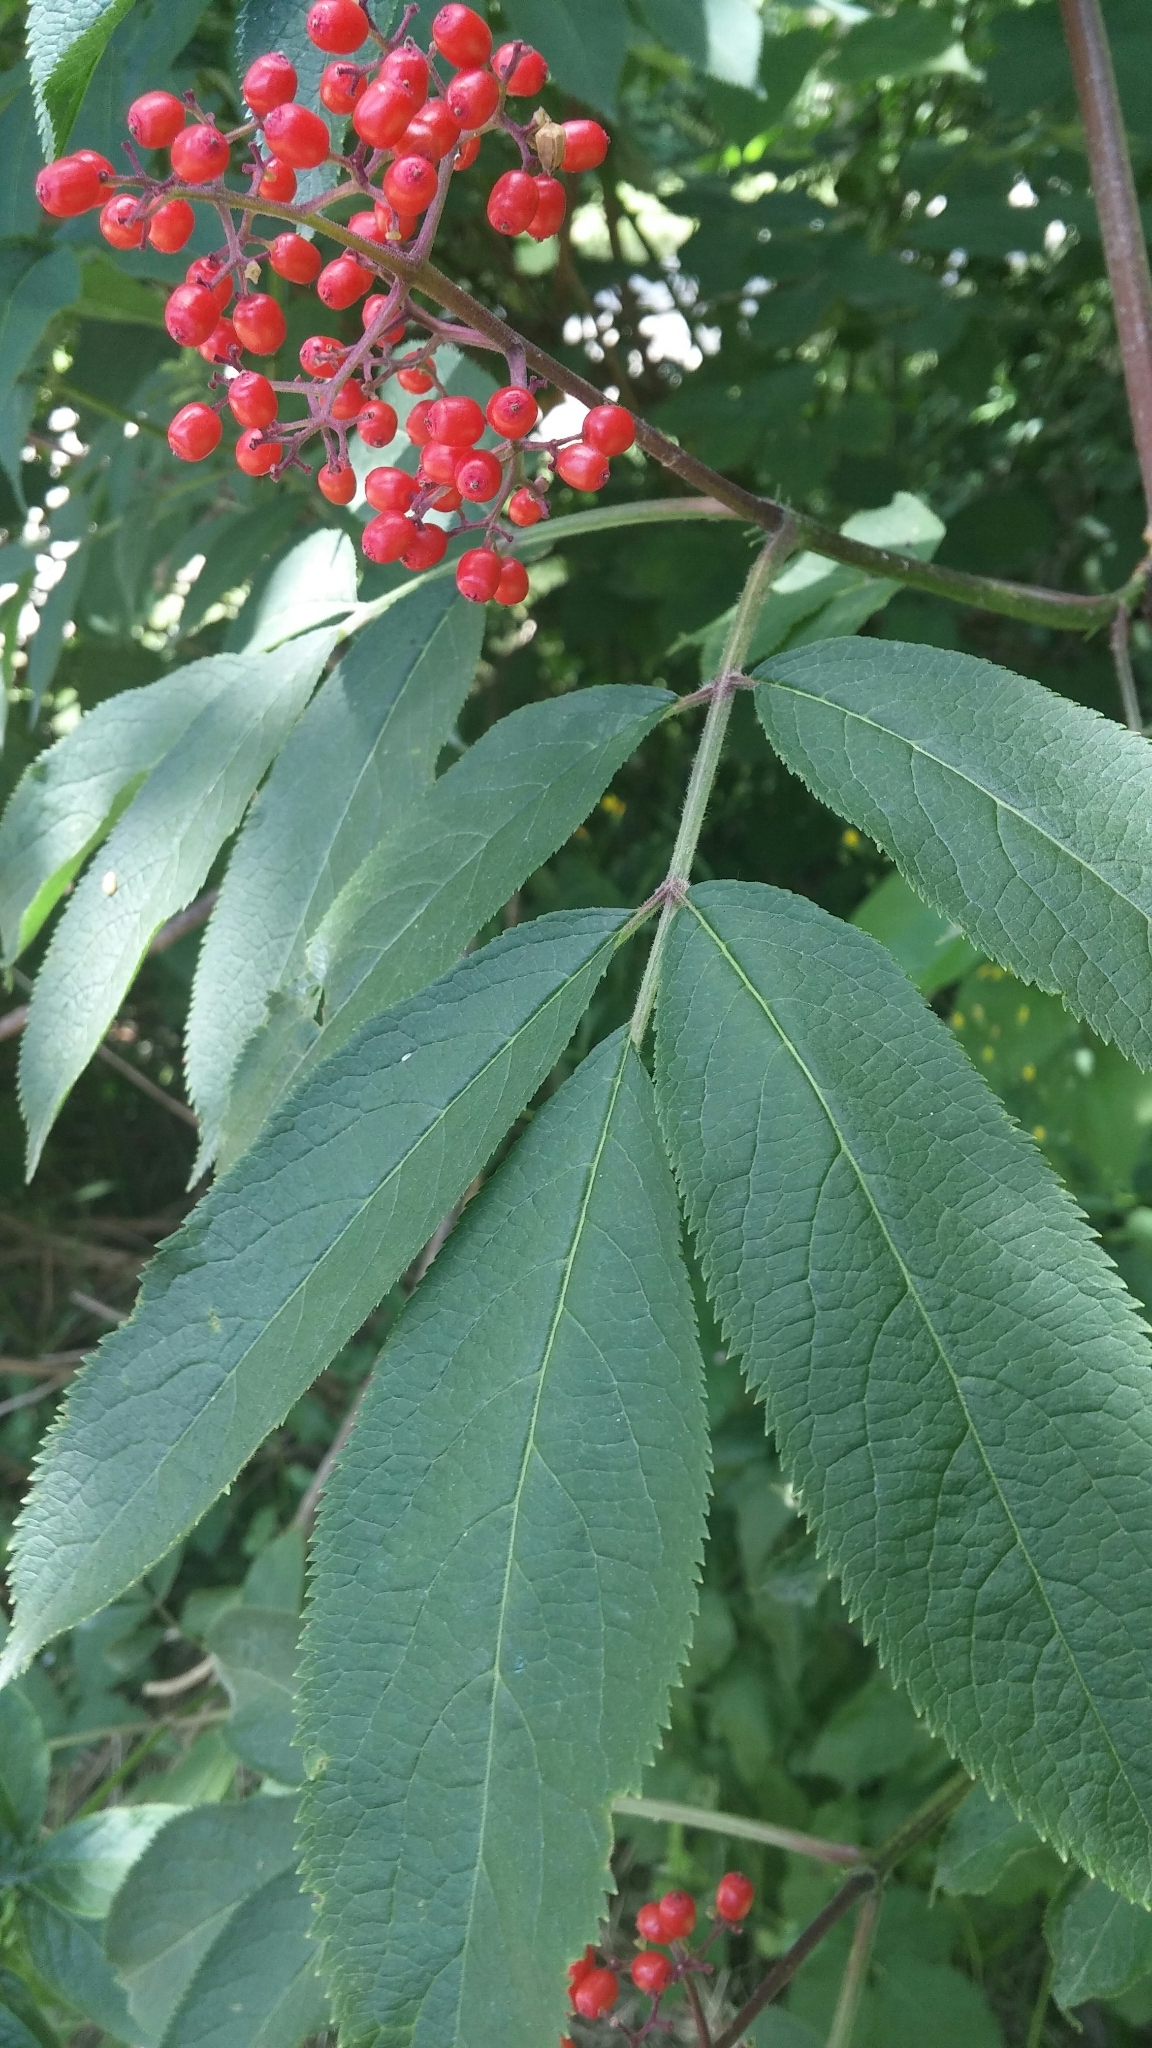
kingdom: Plantae
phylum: Tracheophyta
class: Magnoliopsida
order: Dipsacales
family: Viburnaceae
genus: Sambucus
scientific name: Sambucus racemosa
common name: Red-berried elder
